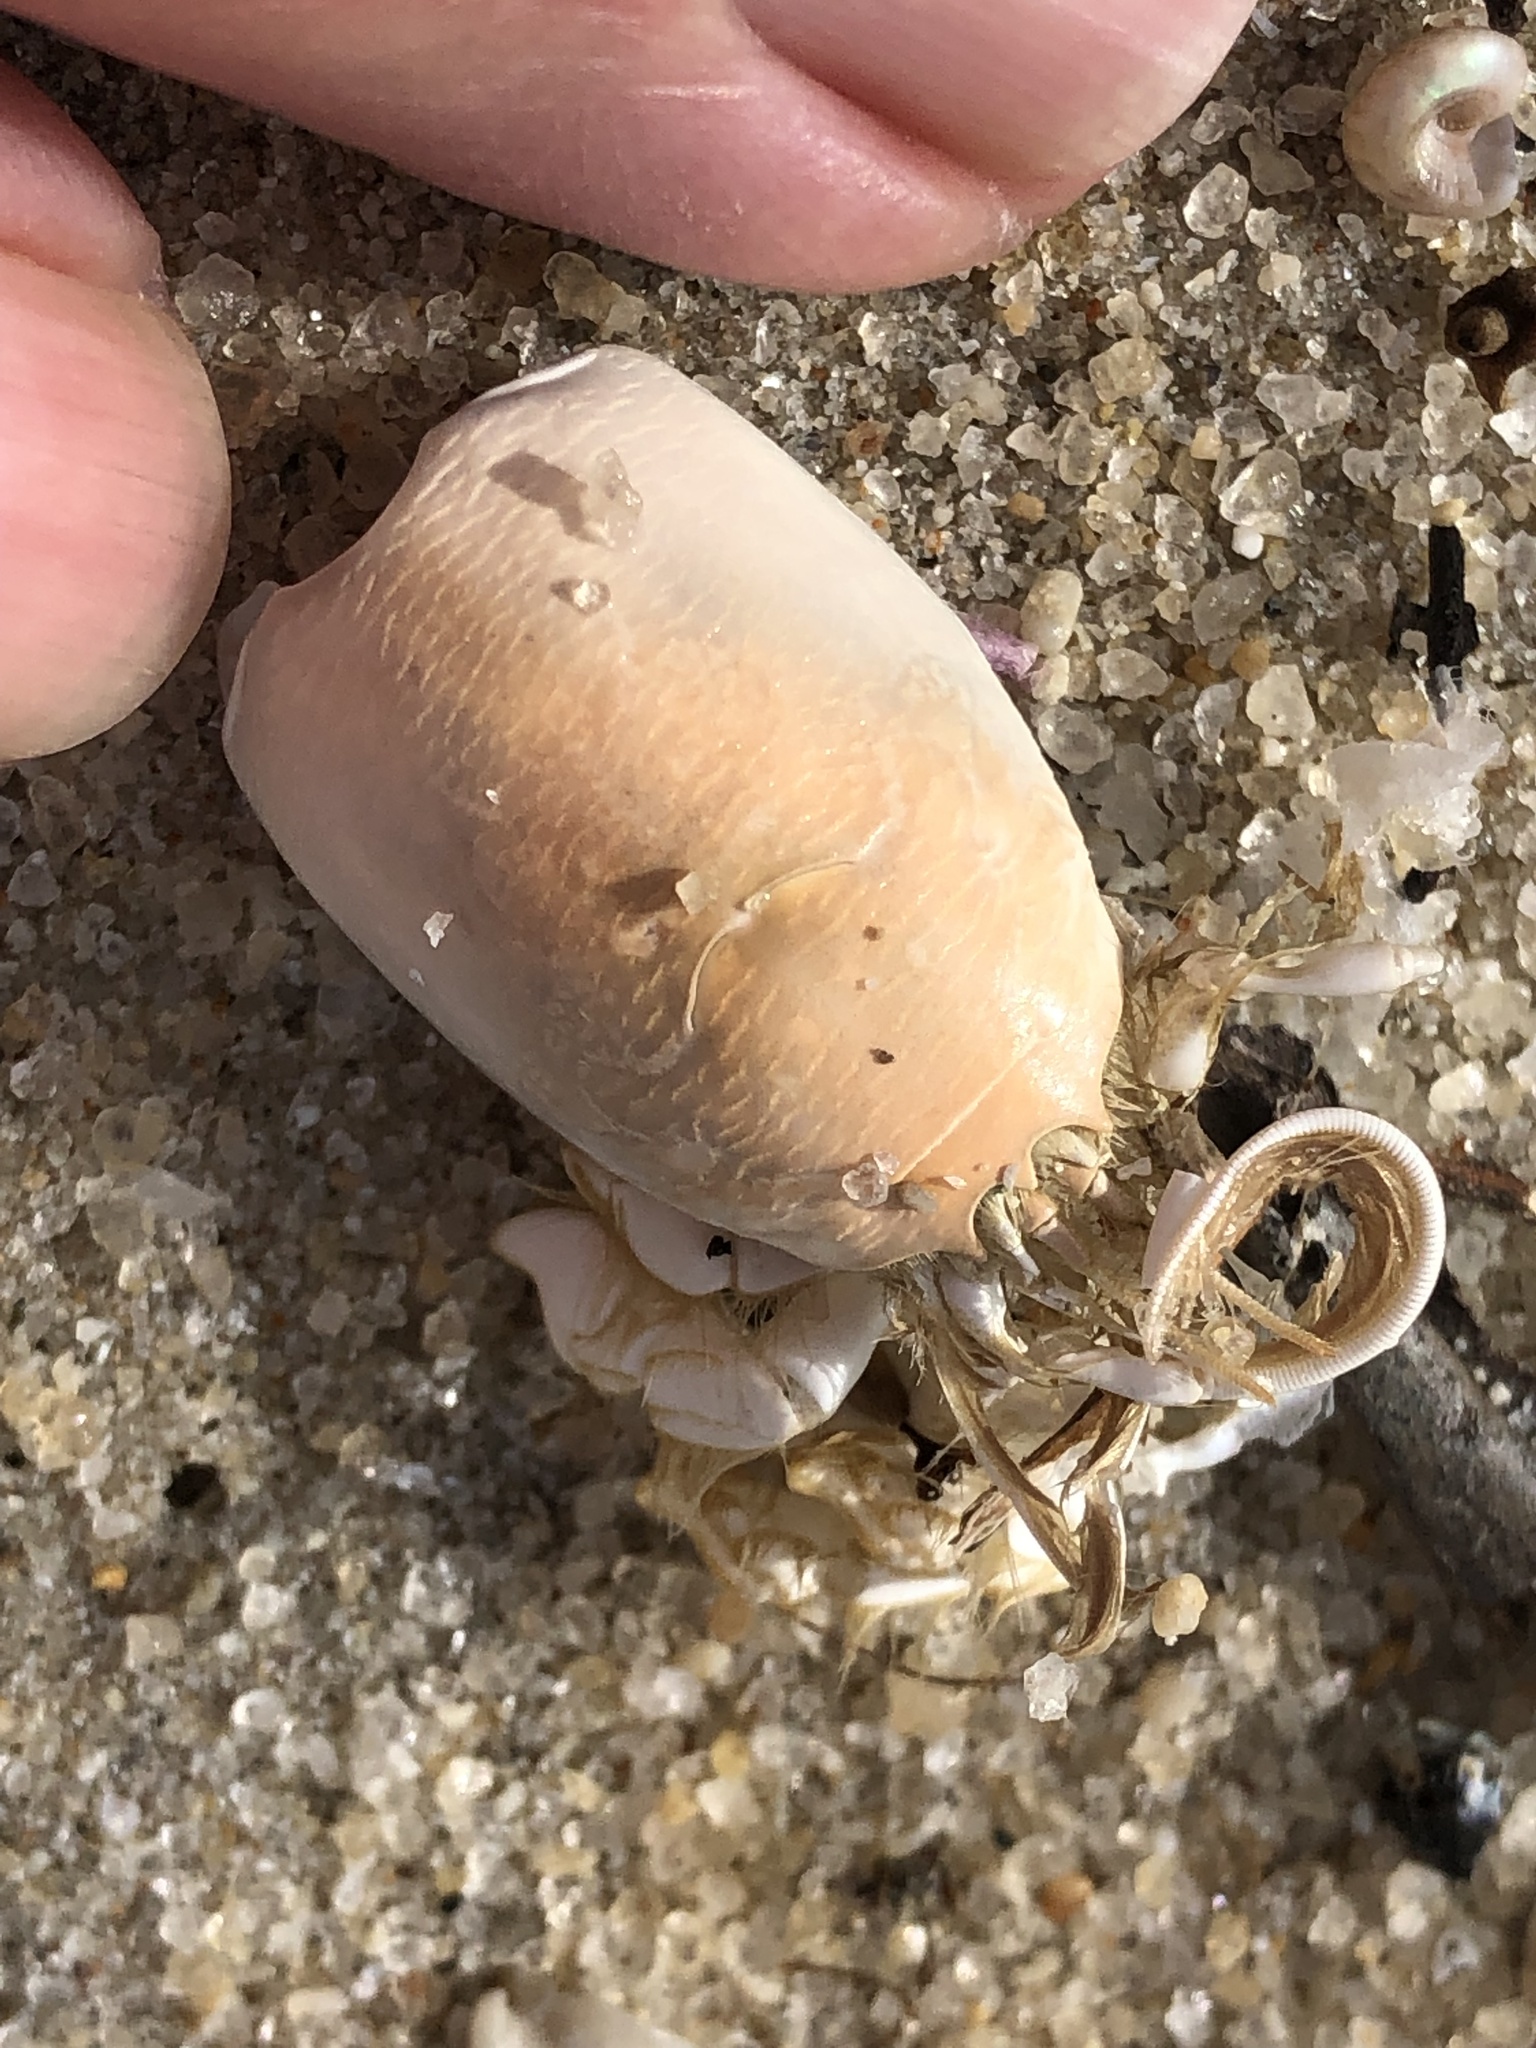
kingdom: Animalia
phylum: Arthropoda
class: Malacostraca
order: Decapoda
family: Hippidae
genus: Emerita
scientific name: Emerita emeritus
